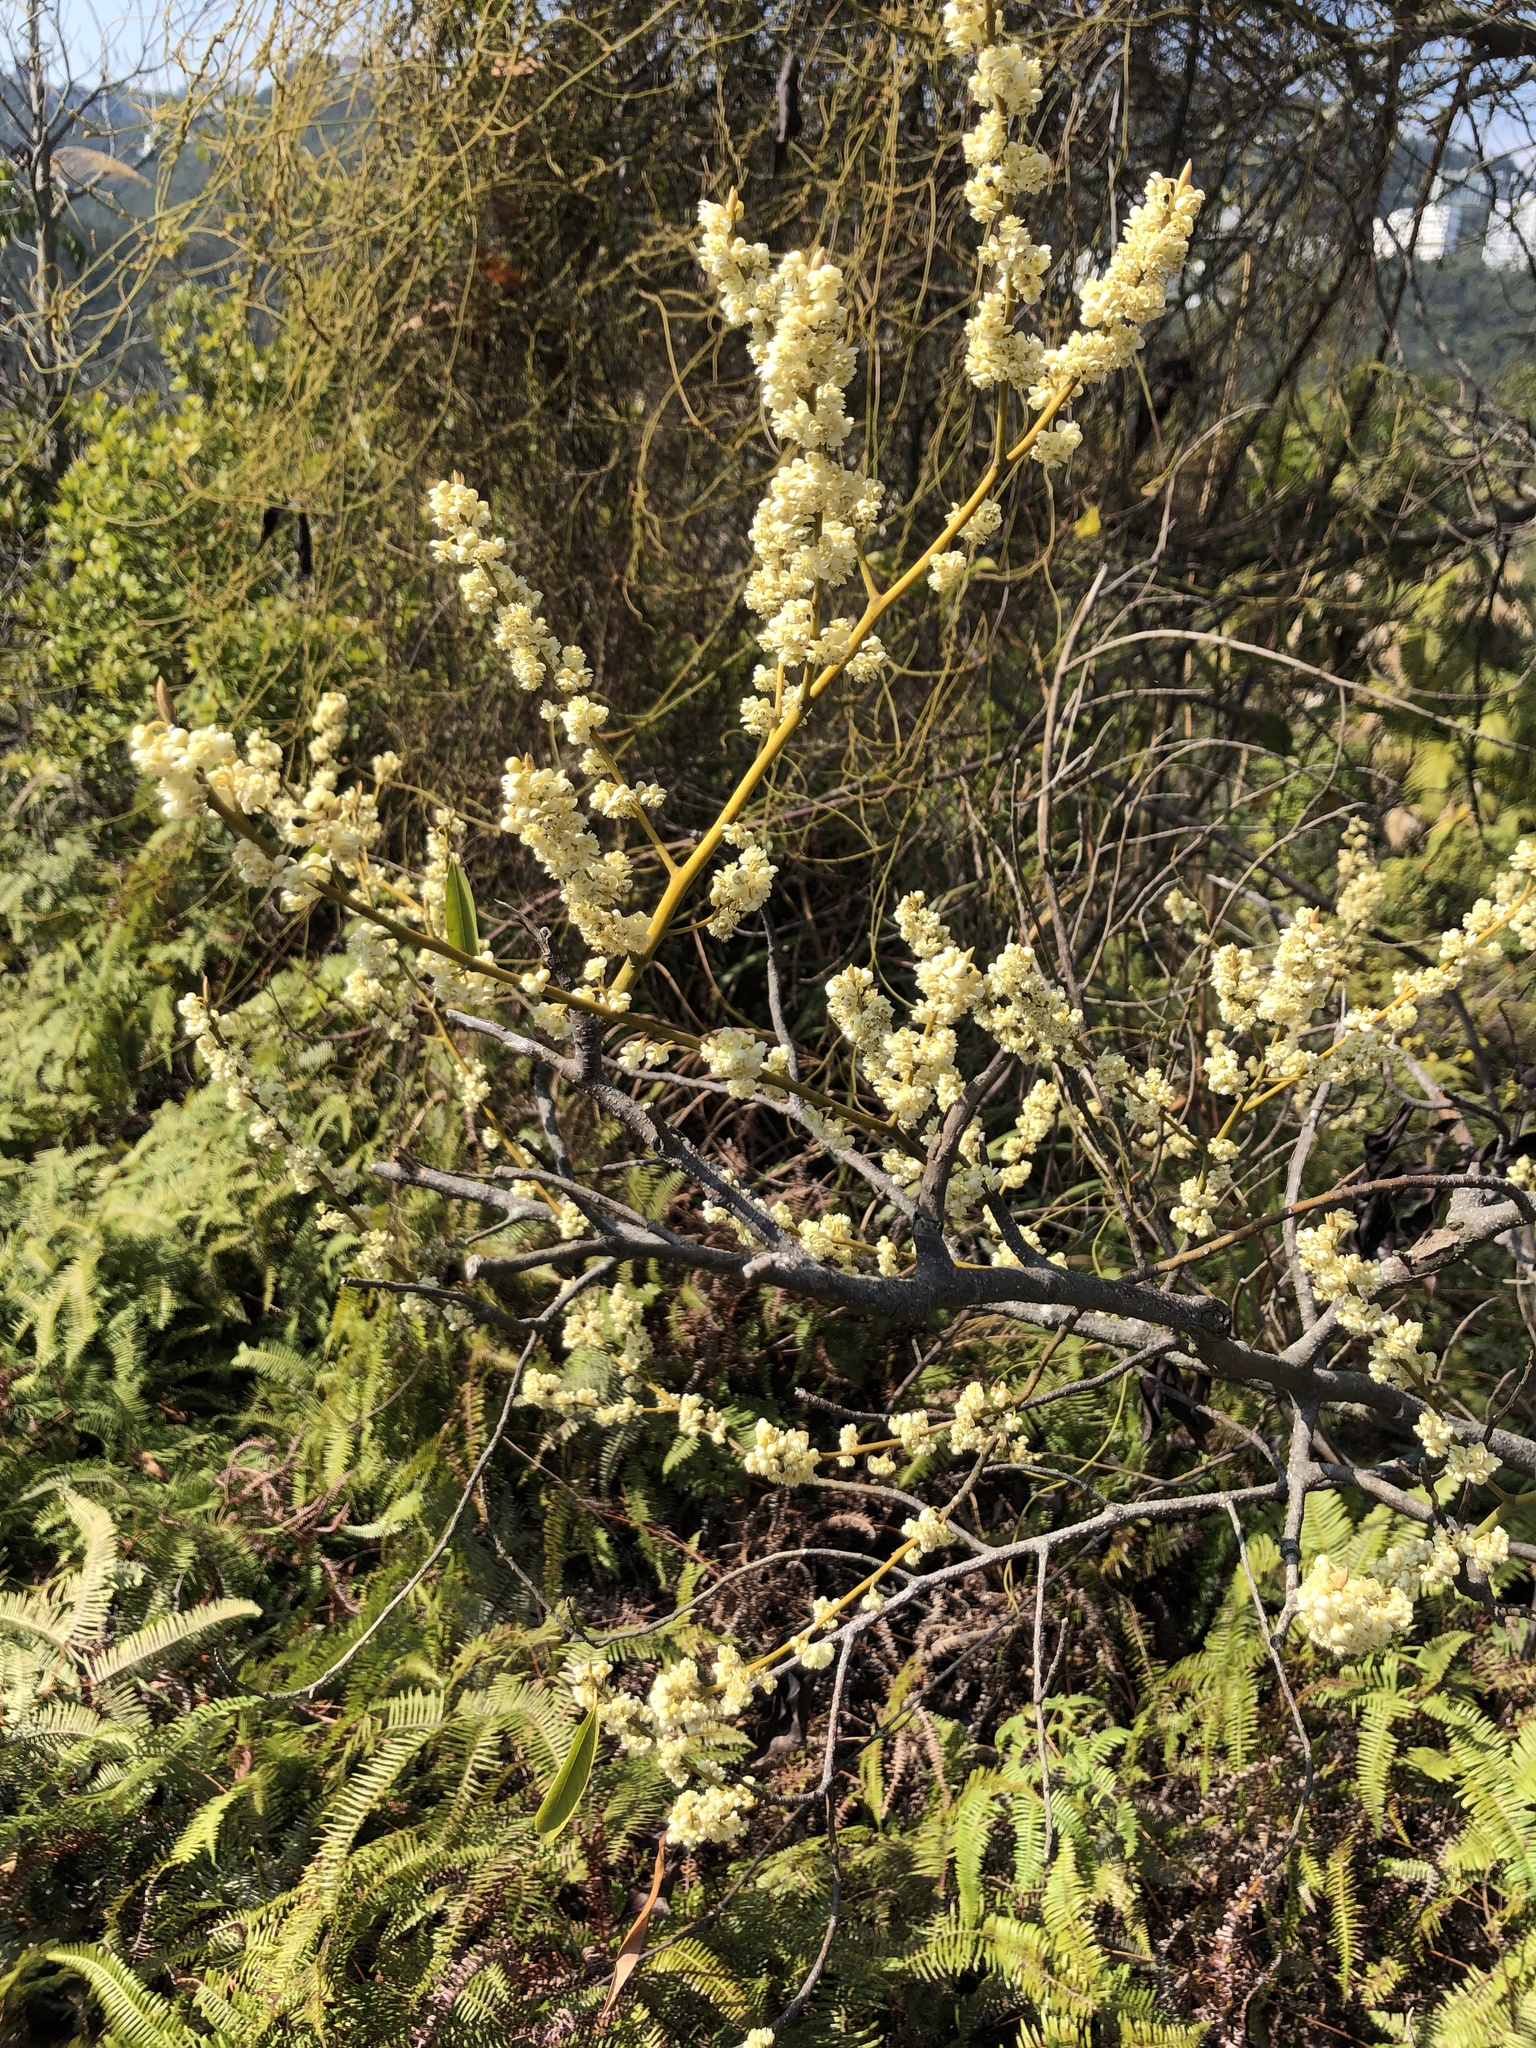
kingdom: Plantae
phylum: Tracheophyta
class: Magnoliopsida
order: Laurales
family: Lauraceae
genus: Litsea
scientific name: Litsea cubeba
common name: Mountain-pepper
